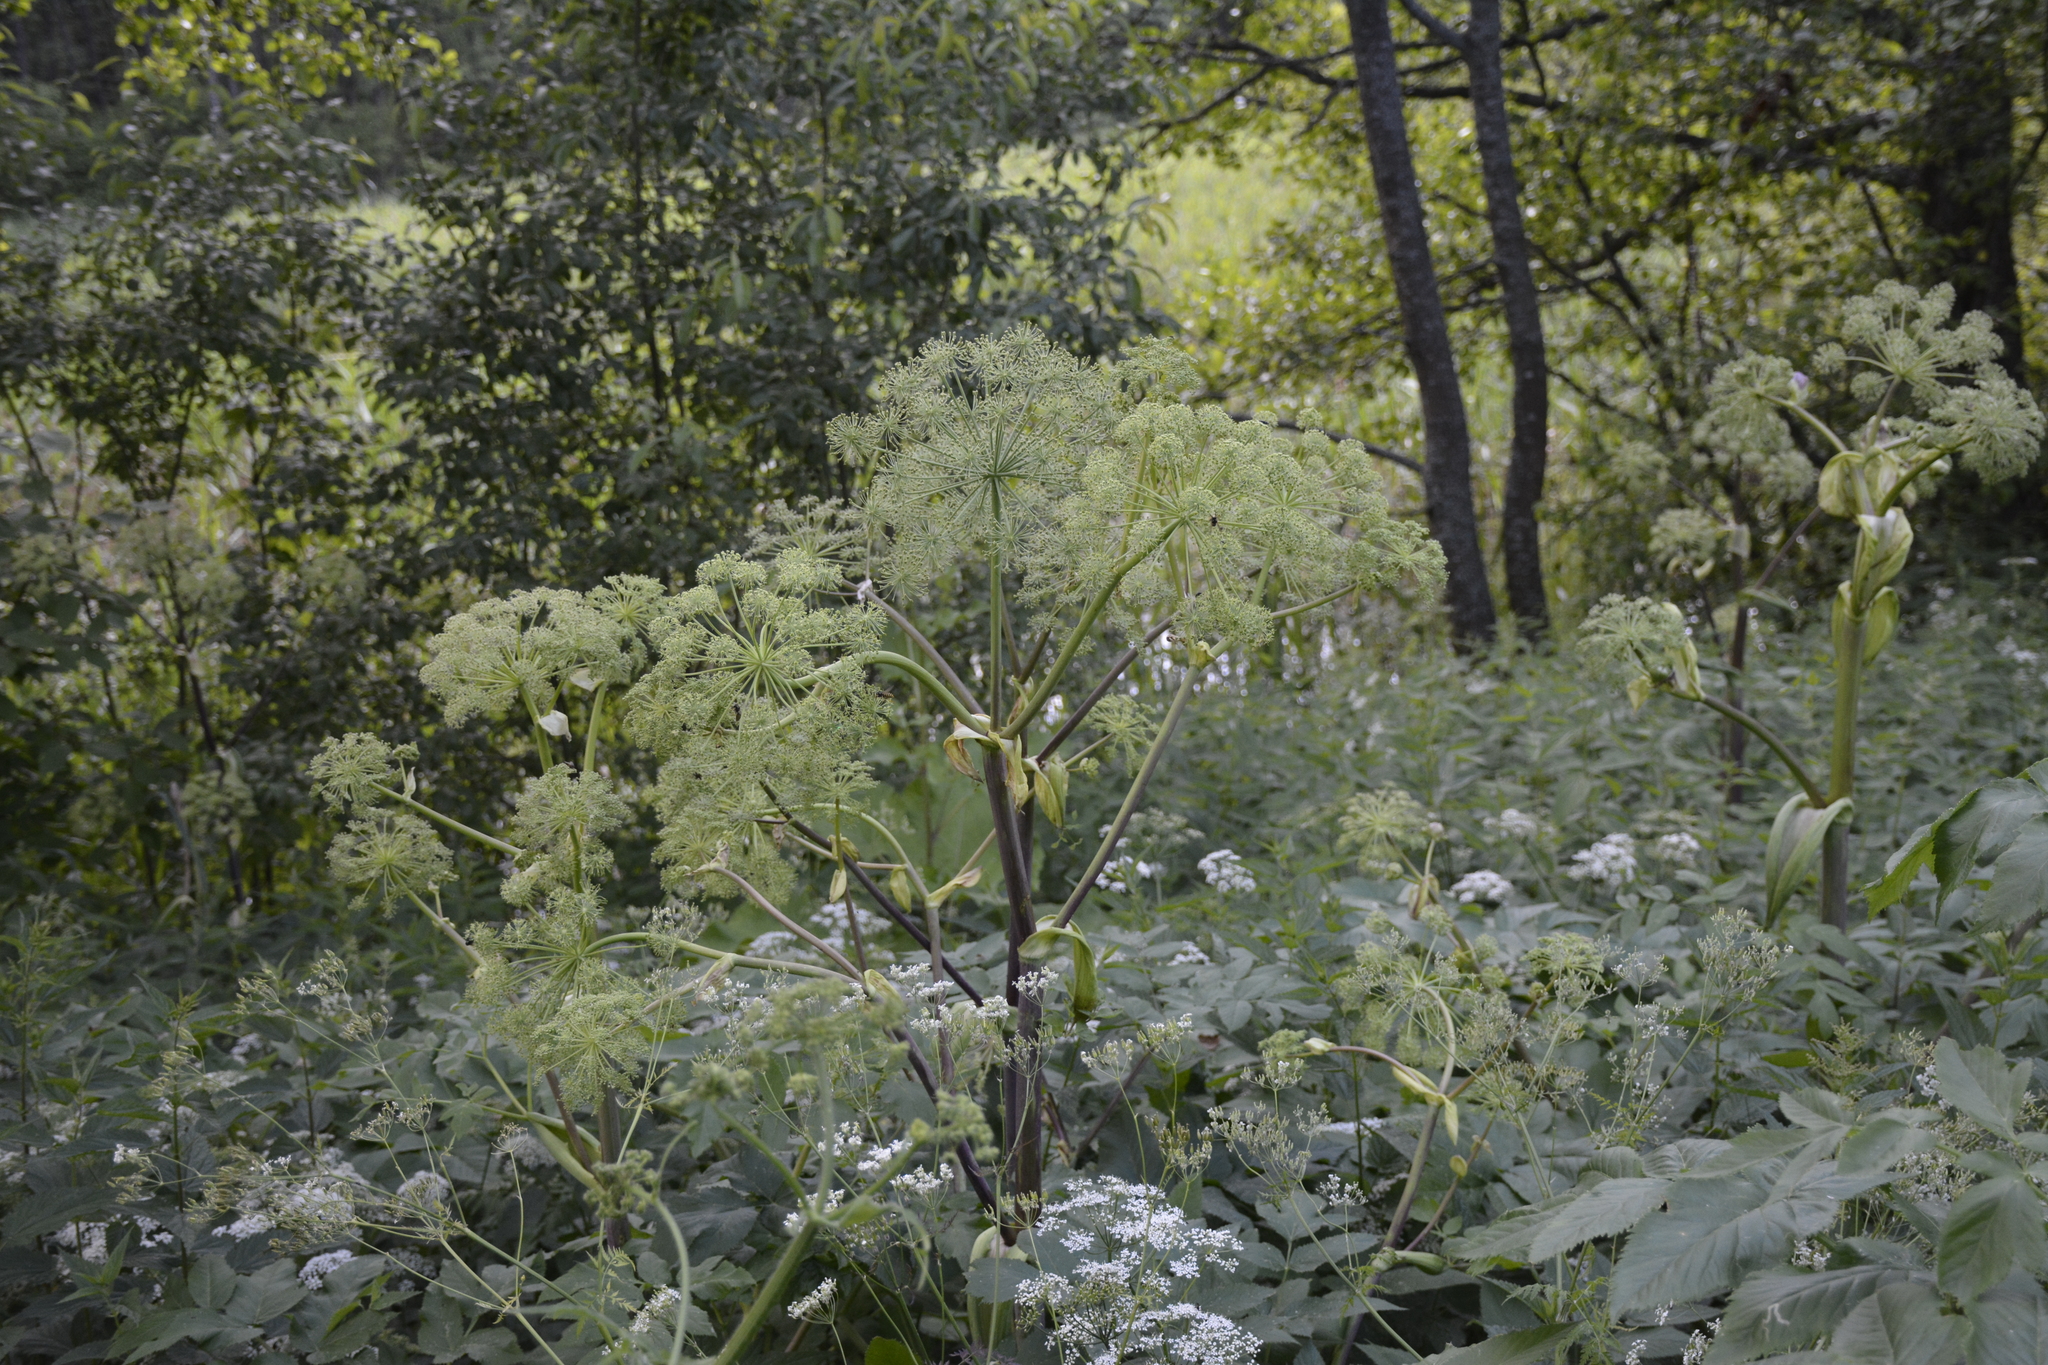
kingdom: Plantae
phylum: Tracheophyta
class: Magnoliopsida
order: Apiales
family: Apiaceae
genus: Angelica
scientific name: Angelica archangelica
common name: Garden angelica
